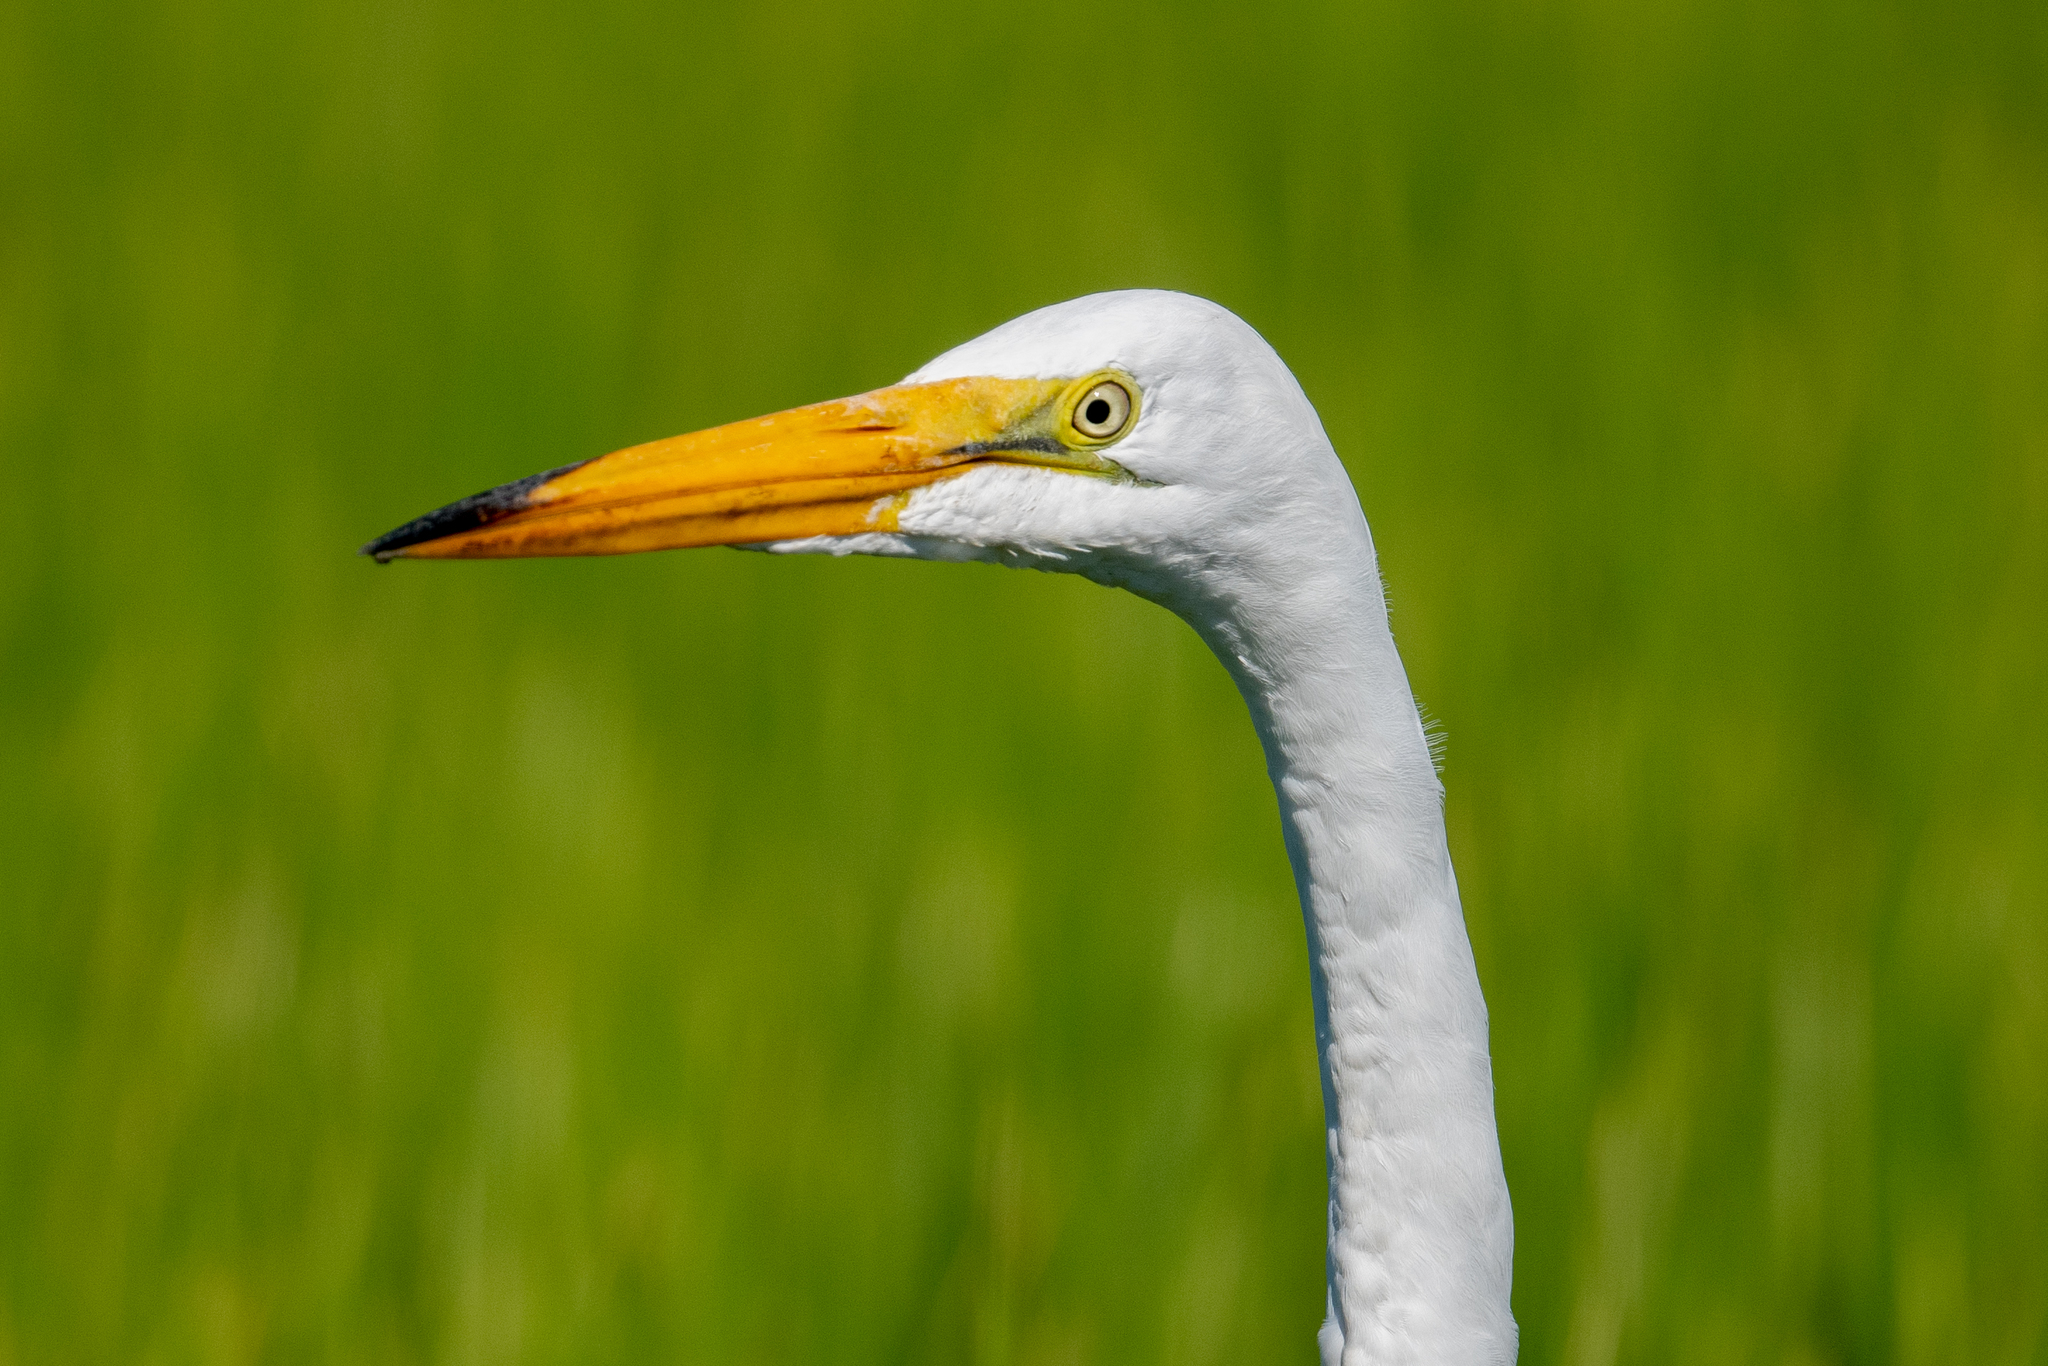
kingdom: Animalia
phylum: Chordata
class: Aves
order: Pelecaniformes
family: Ardeidae
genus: Ardea
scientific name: Ardea alba
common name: Great egret
